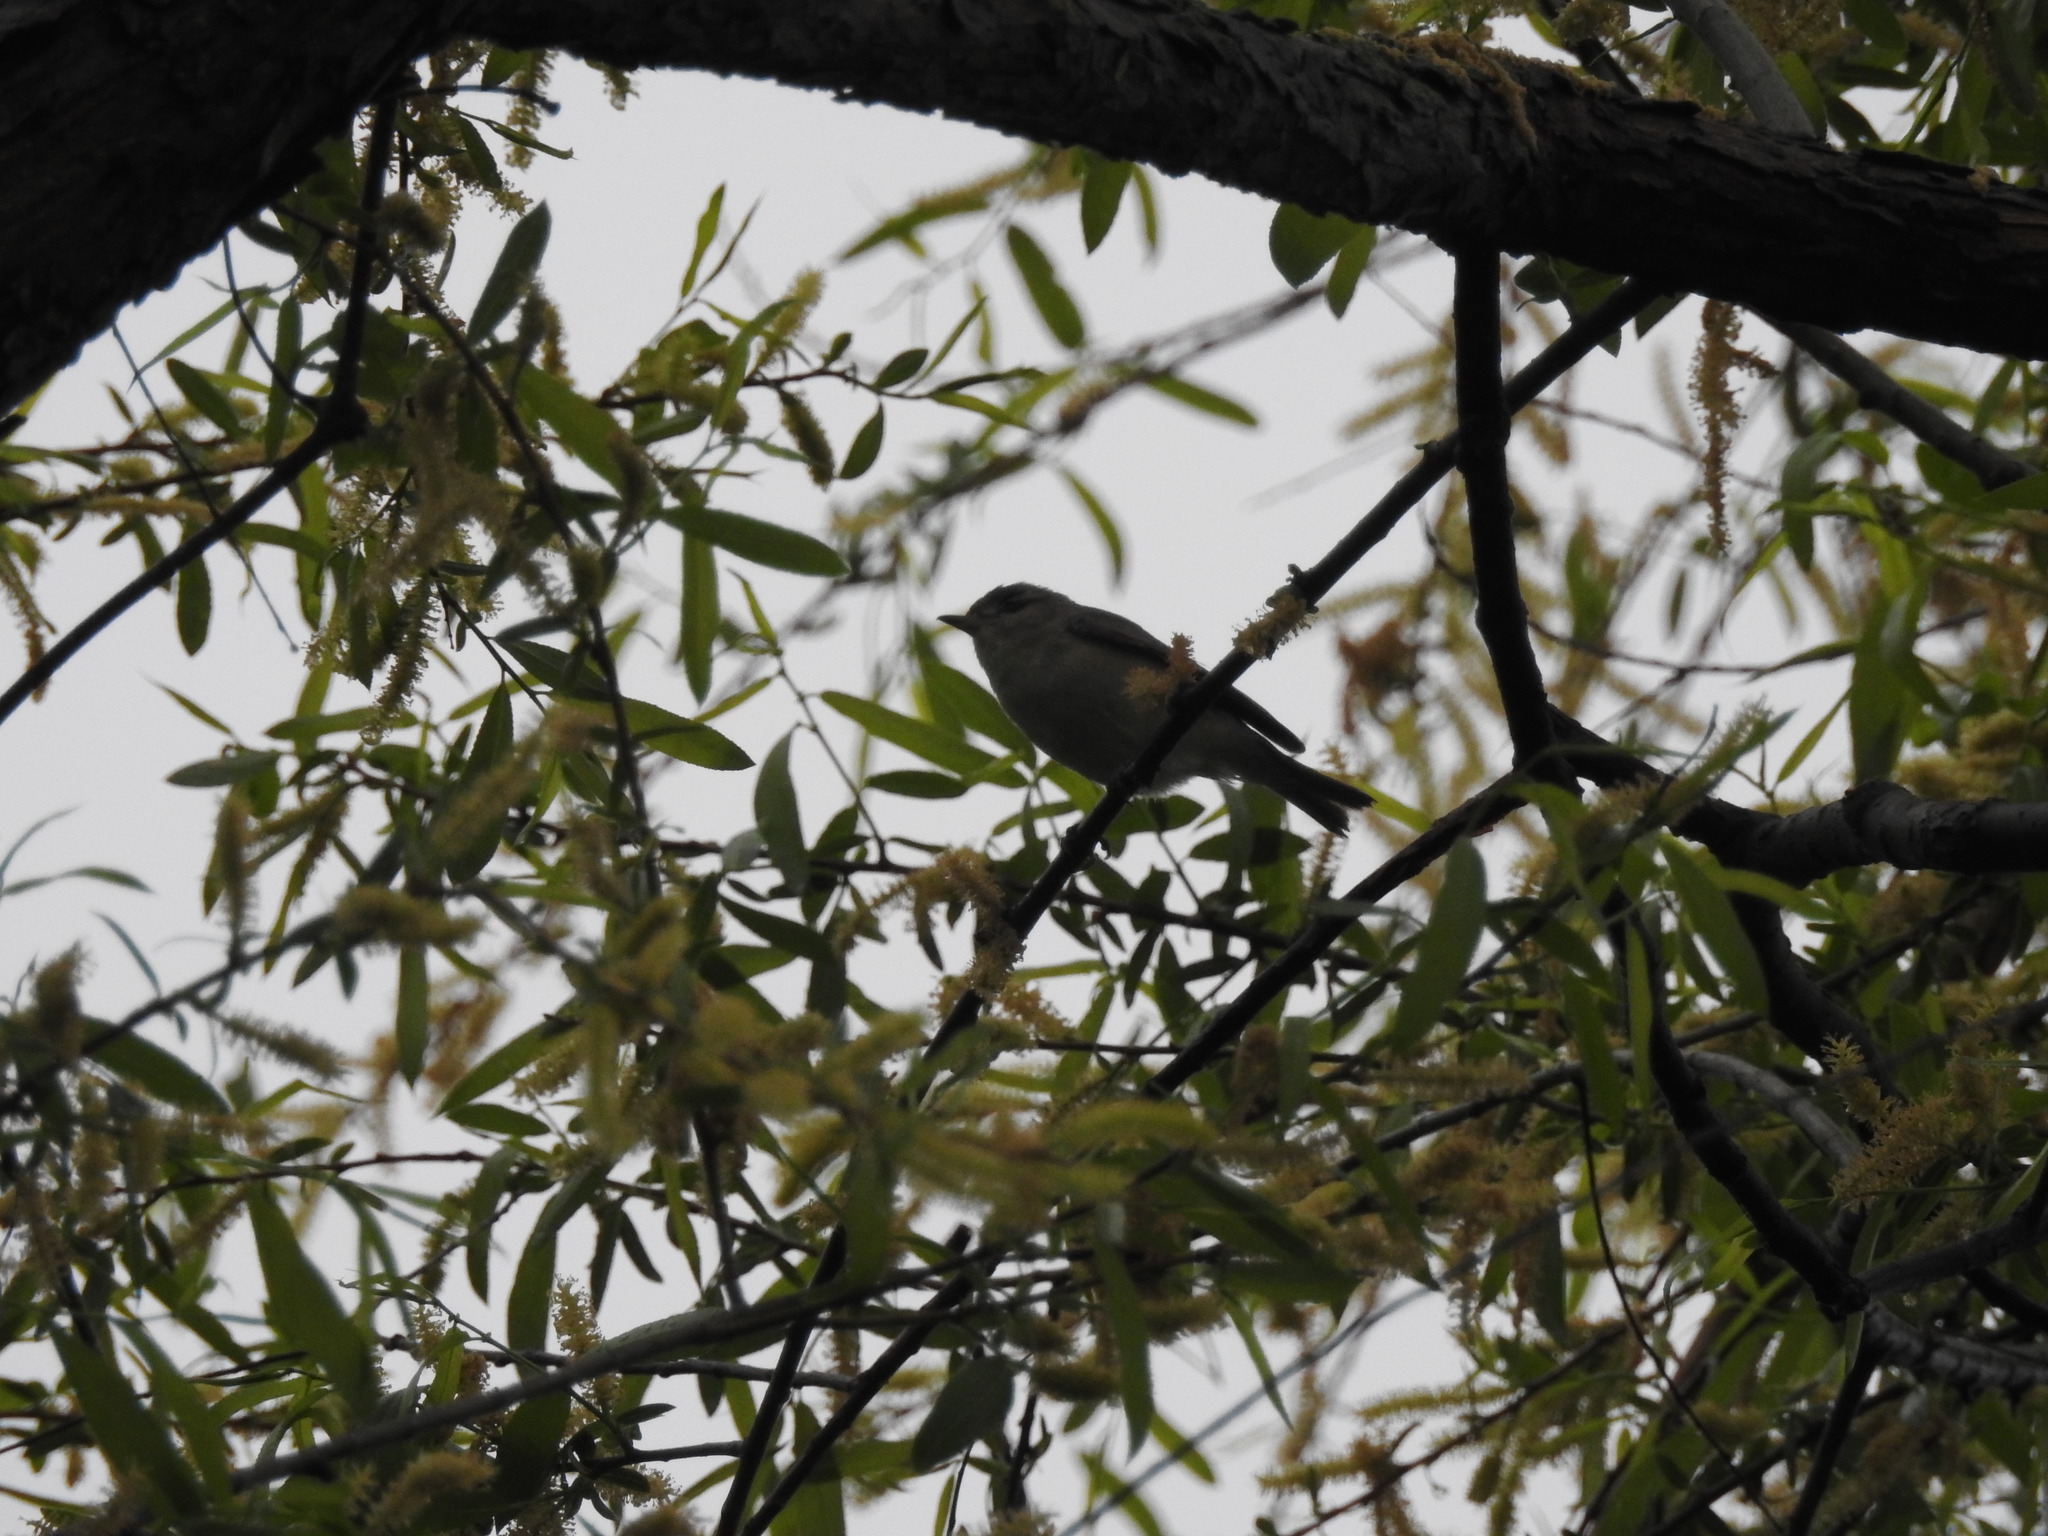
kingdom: Animalia
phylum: Chordata
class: Aves
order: Passeriformes
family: Vireonidae
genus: Vireo
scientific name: Vireo gilvus
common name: Warbling vireo
